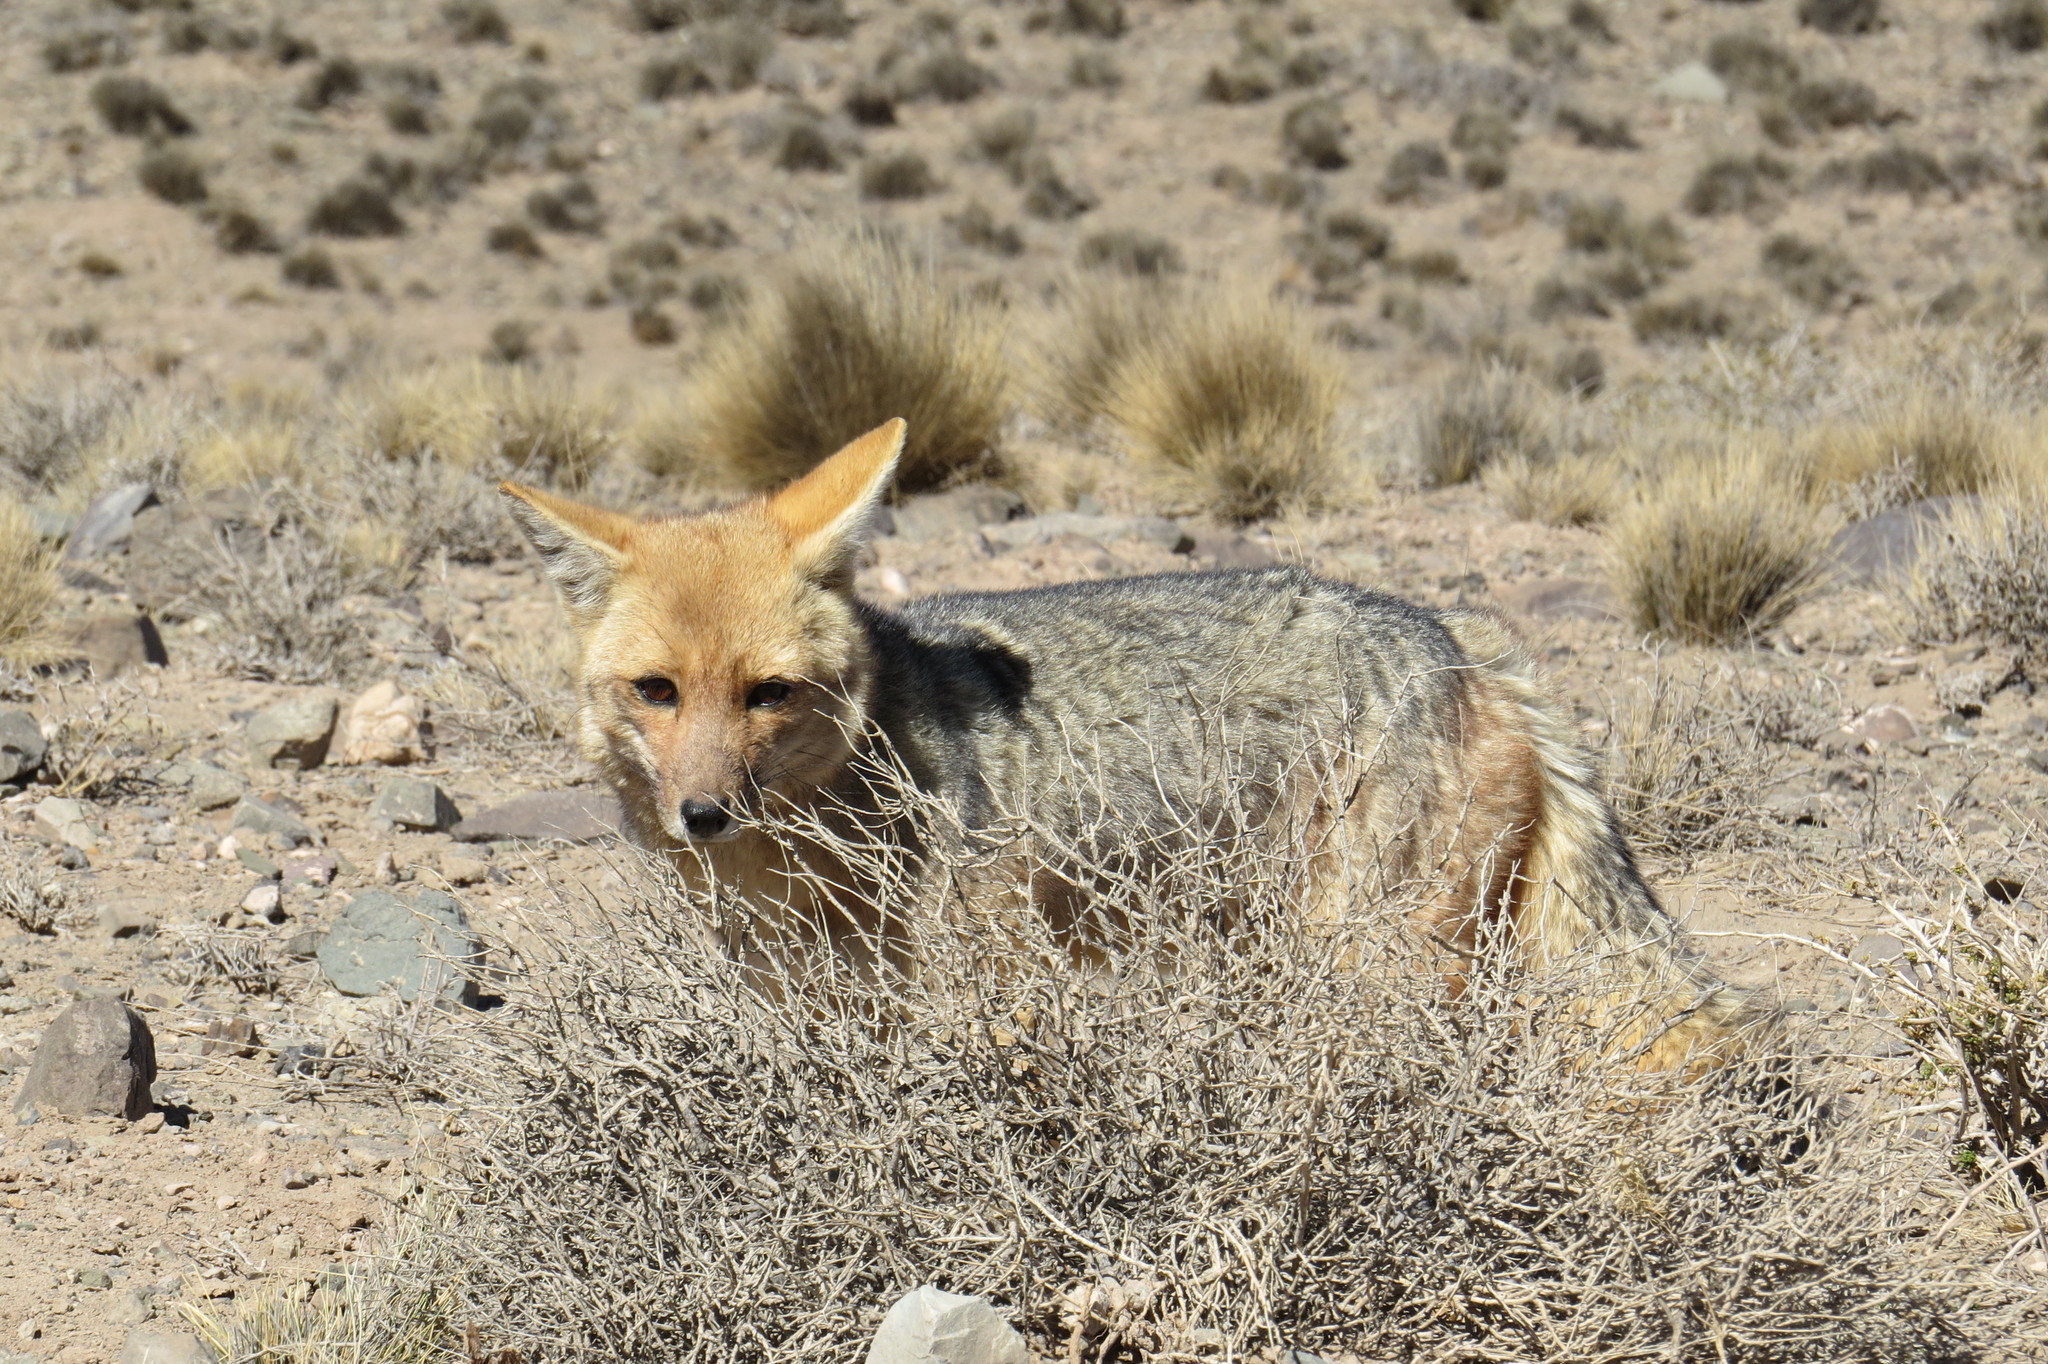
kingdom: Animalia
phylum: Chordata
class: Mammalia
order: Carnivora
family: Canidae
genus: Lycalopex
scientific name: Lycalopex culpaeus
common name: Culpeo
